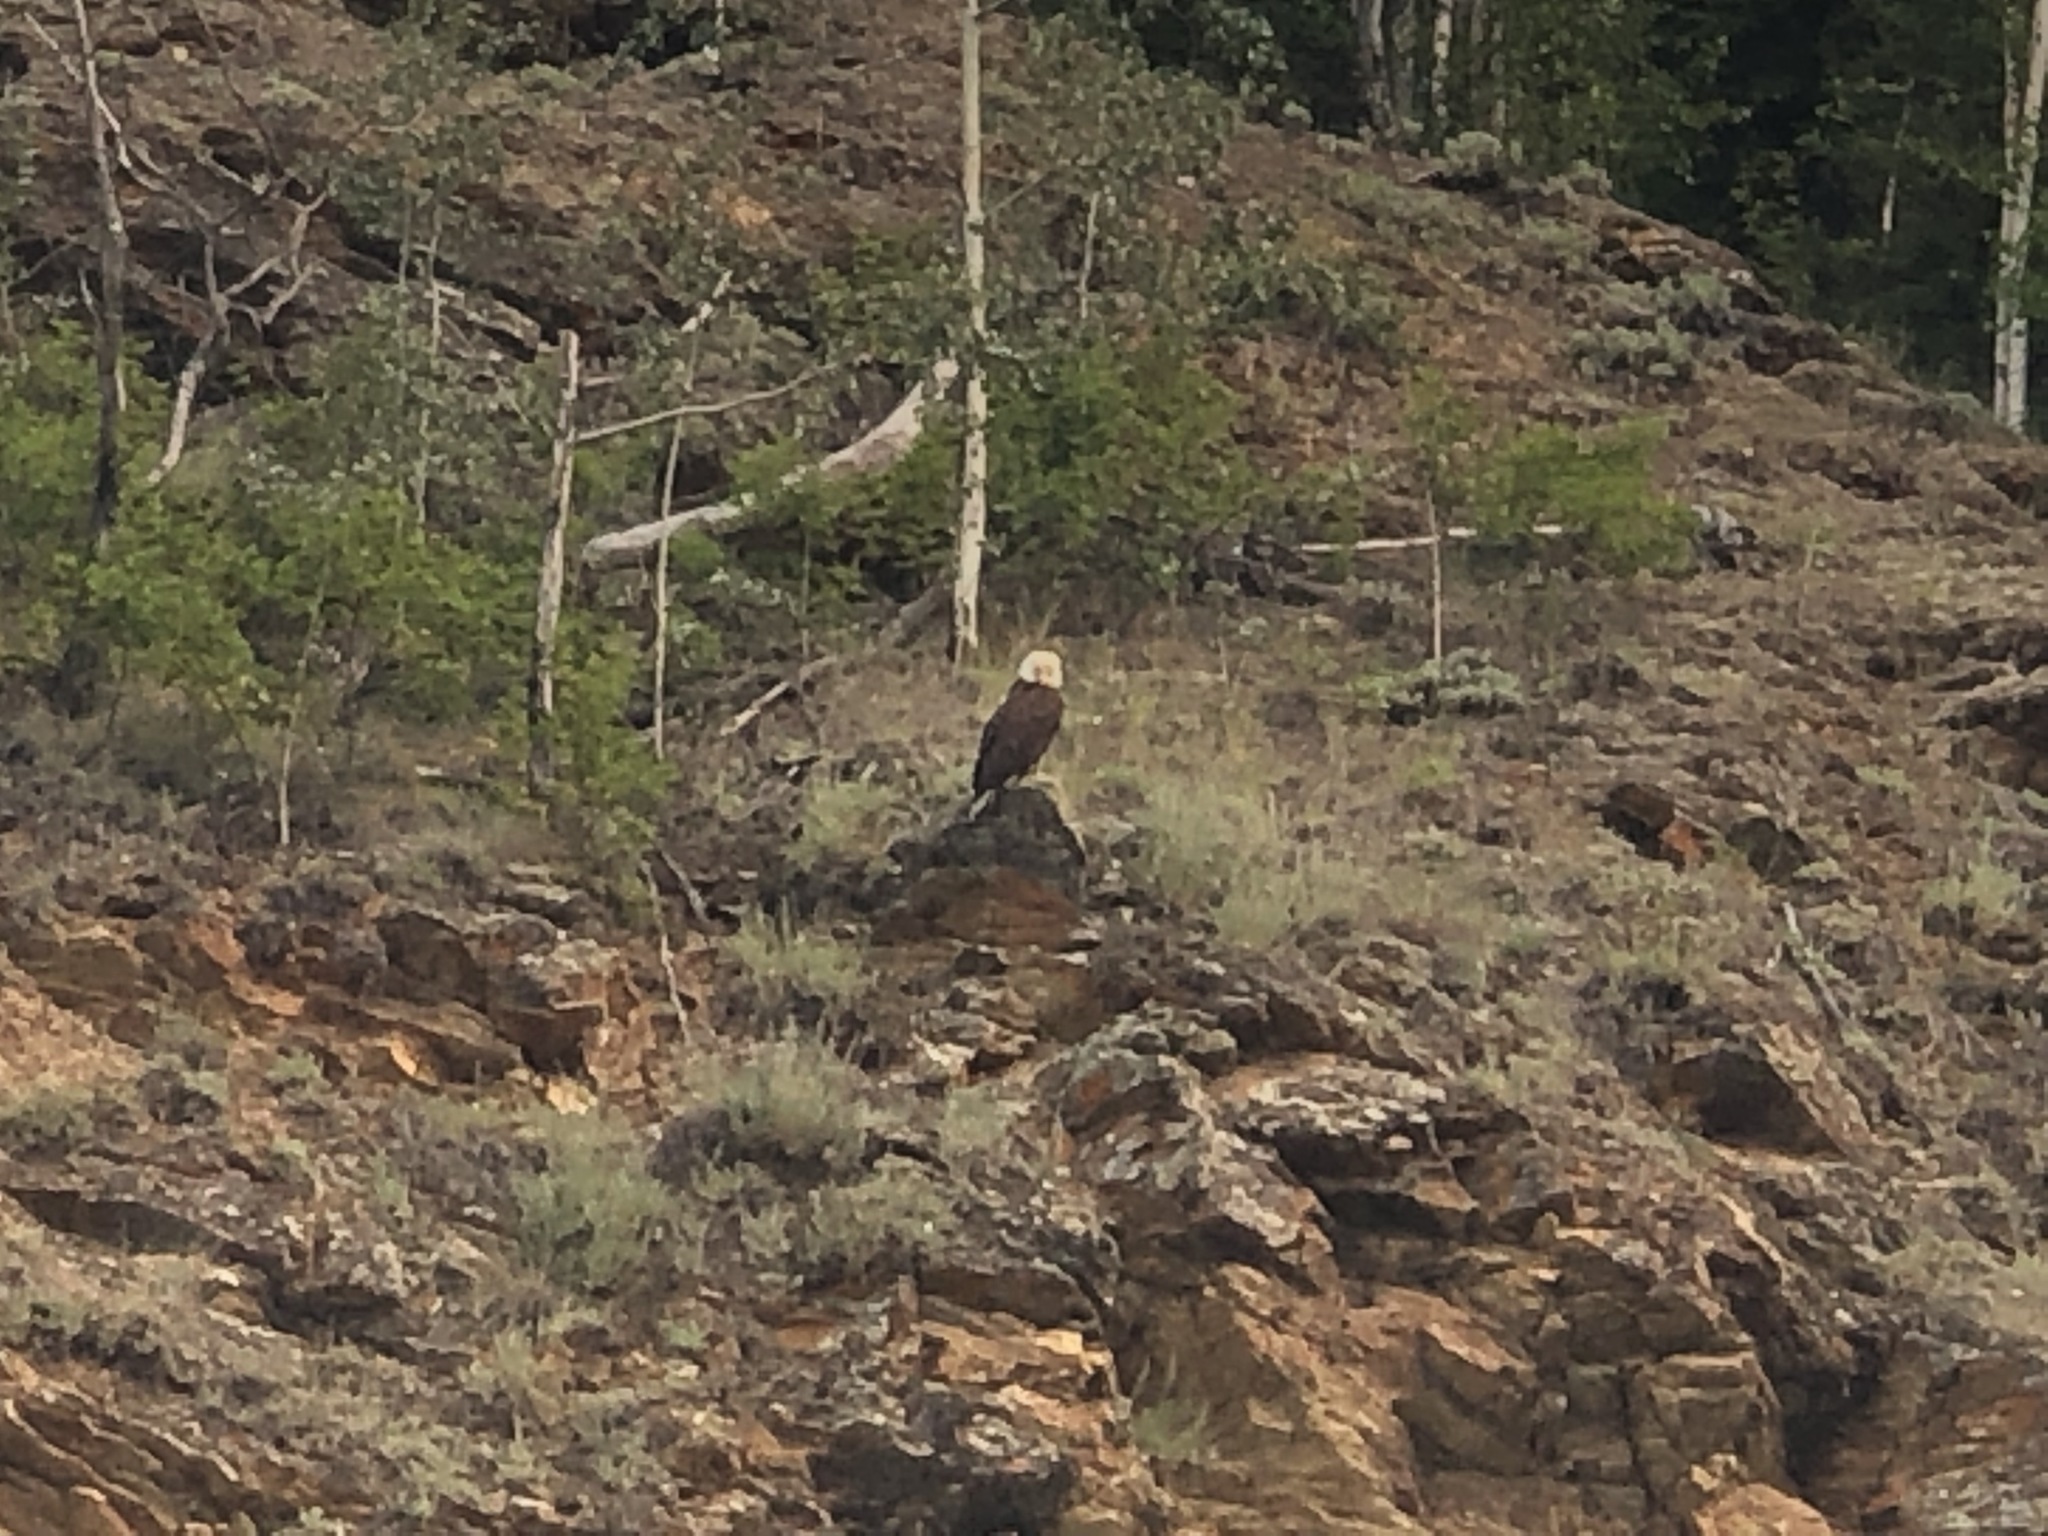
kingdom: Animalia
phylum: Chordata
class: Aves
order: Accipitriformes
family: Accipitridae
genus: Haliaeetus
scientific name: Haliaeetus leucocephalus
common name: Bald eagle
